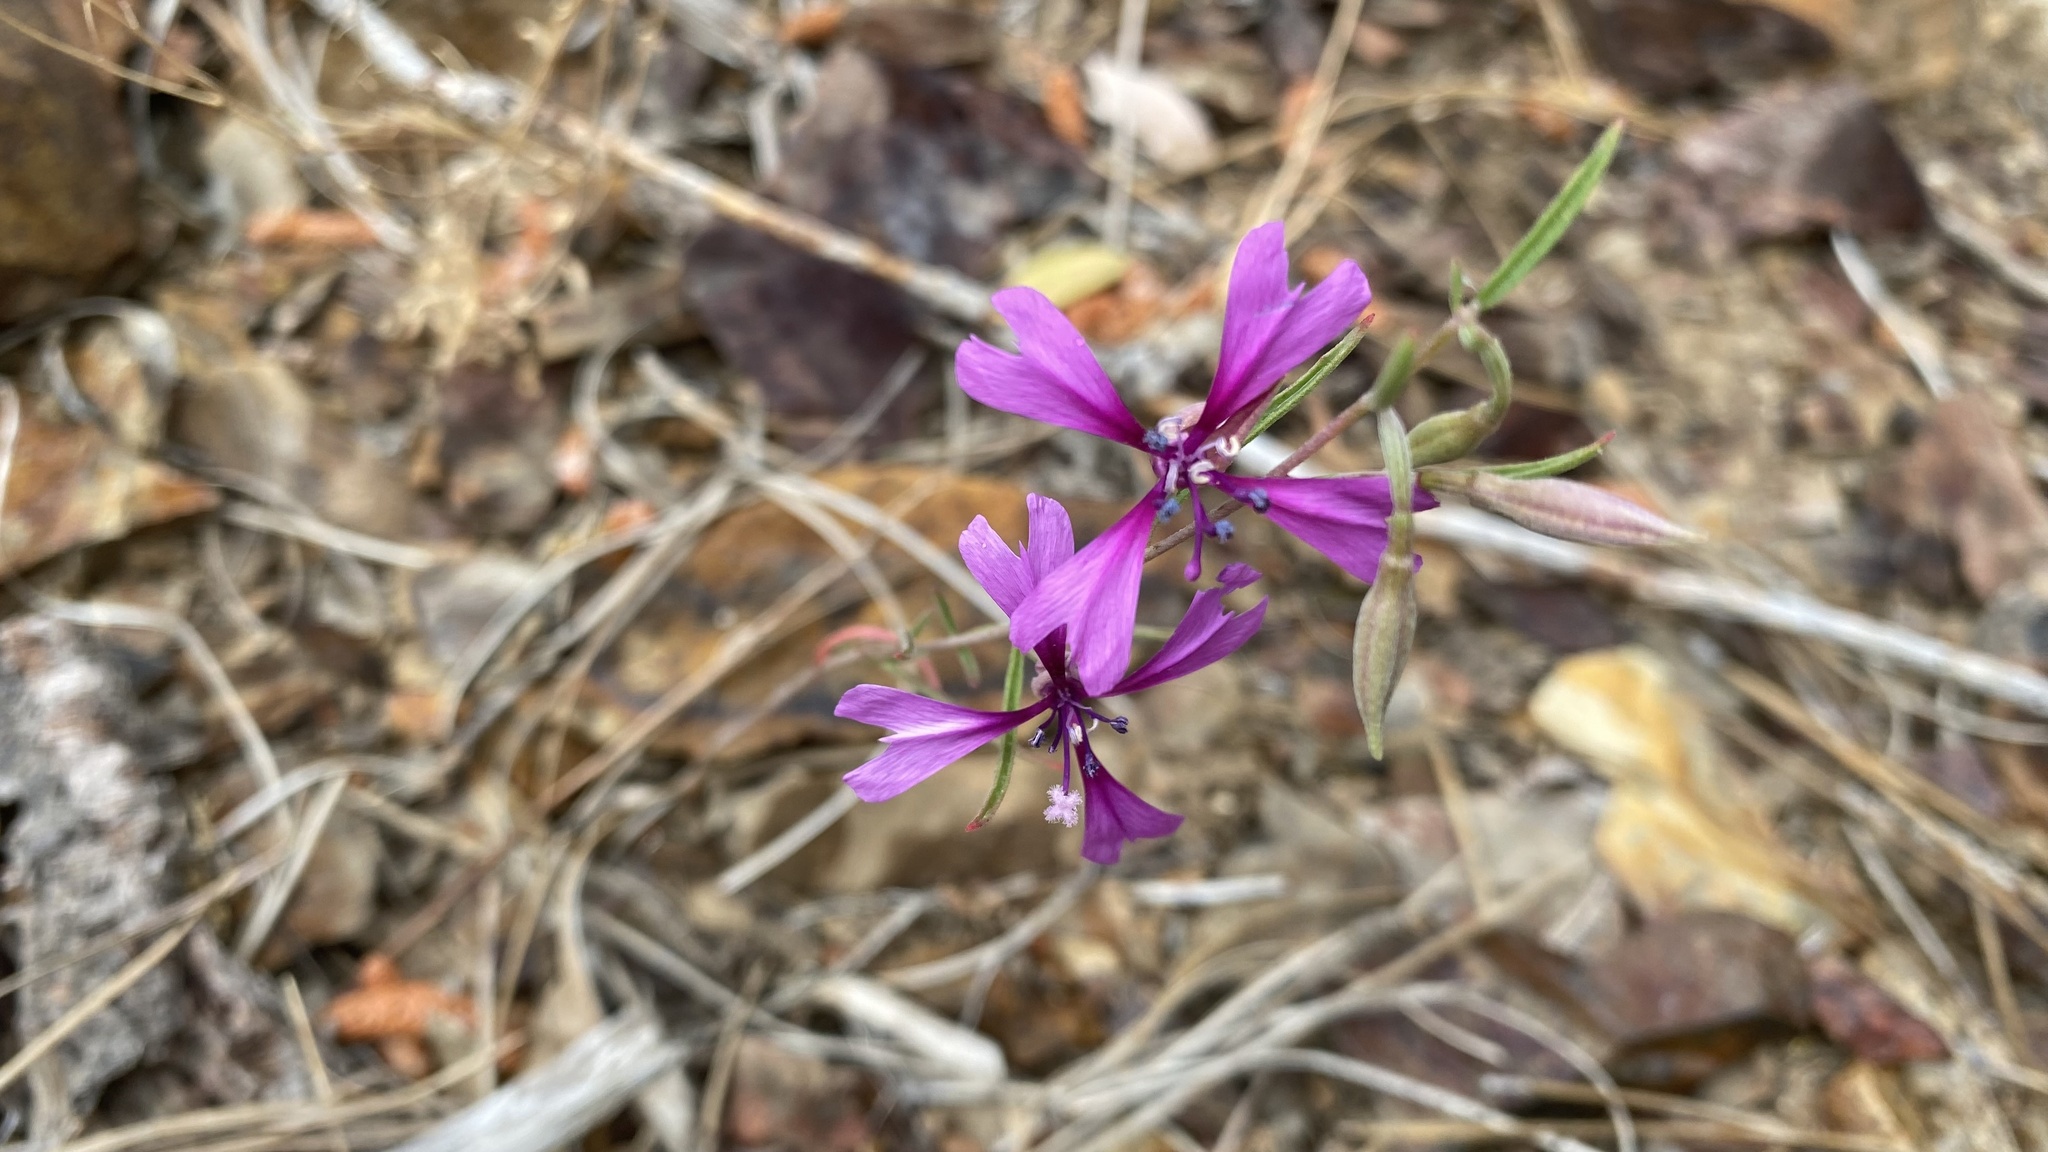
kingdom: Plantae
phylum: Tracheophyta
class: Magnoliopsida
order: Myrtales
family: Onagraceae
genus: Clarkia
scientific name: Clarkia xantiana
